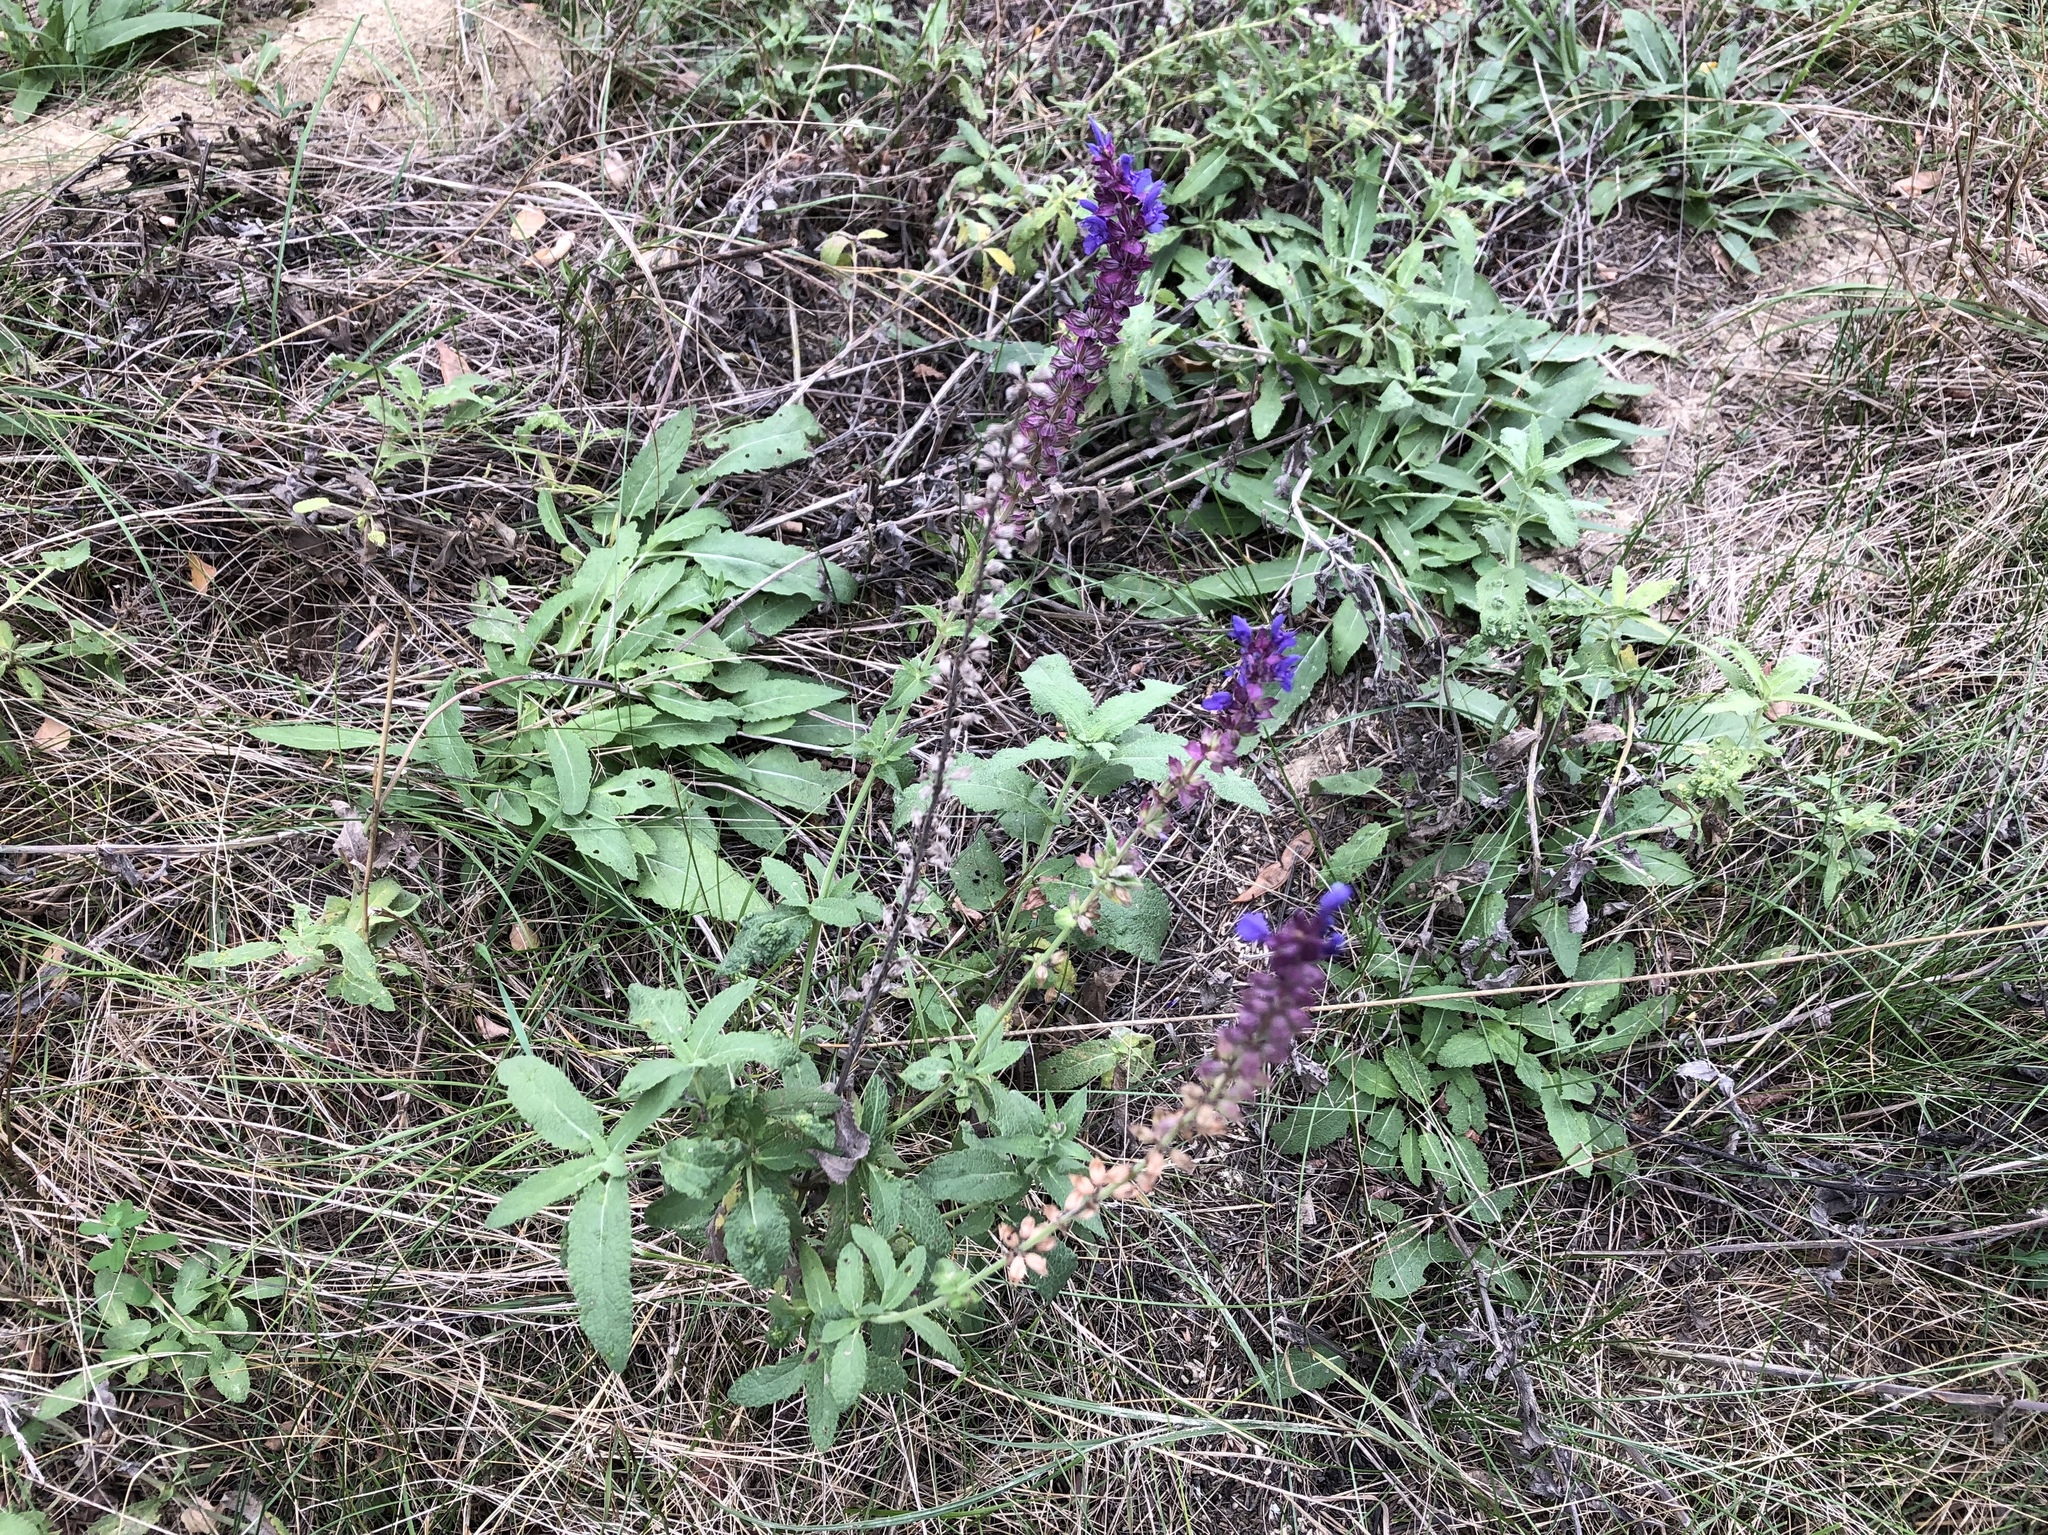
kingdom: Plantae
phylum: Tracheophyta
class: Magnoliopsida
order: Lamiales
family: Lamiaceae
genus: Salvia
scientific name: Salvia nemorosa
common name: Balkan clary
